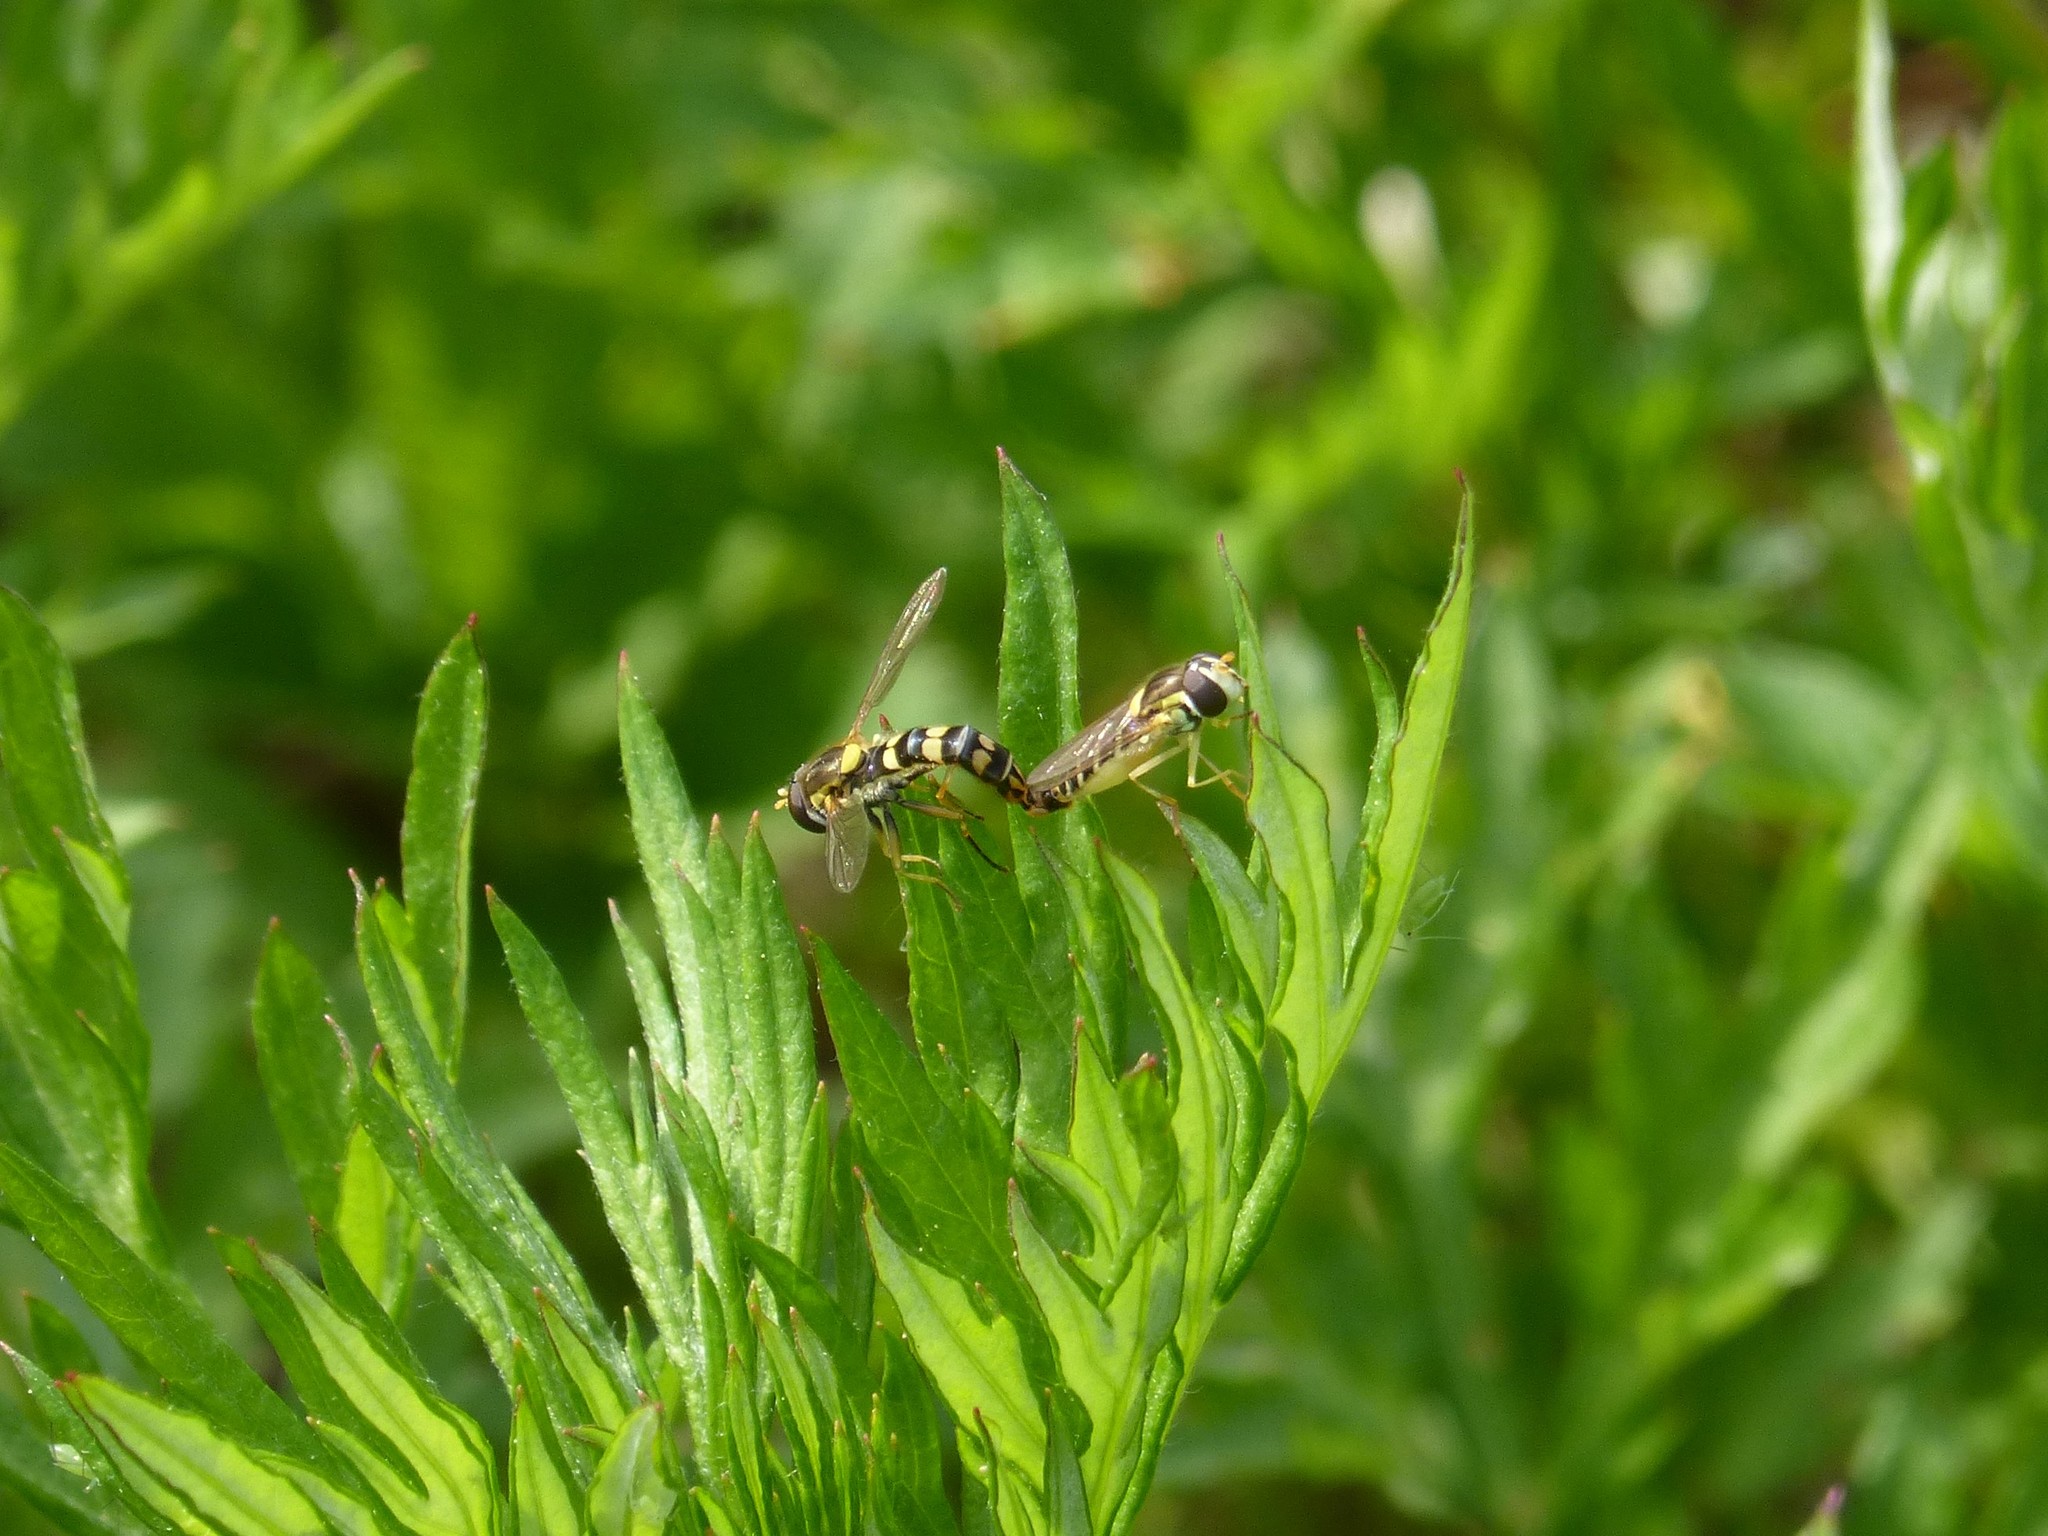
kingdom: Animalia
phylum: Arthropoda
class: Insecta
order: Diptera
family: Syrphidae
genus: Sphaerophoria
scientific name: Sphaerophoria scripta
